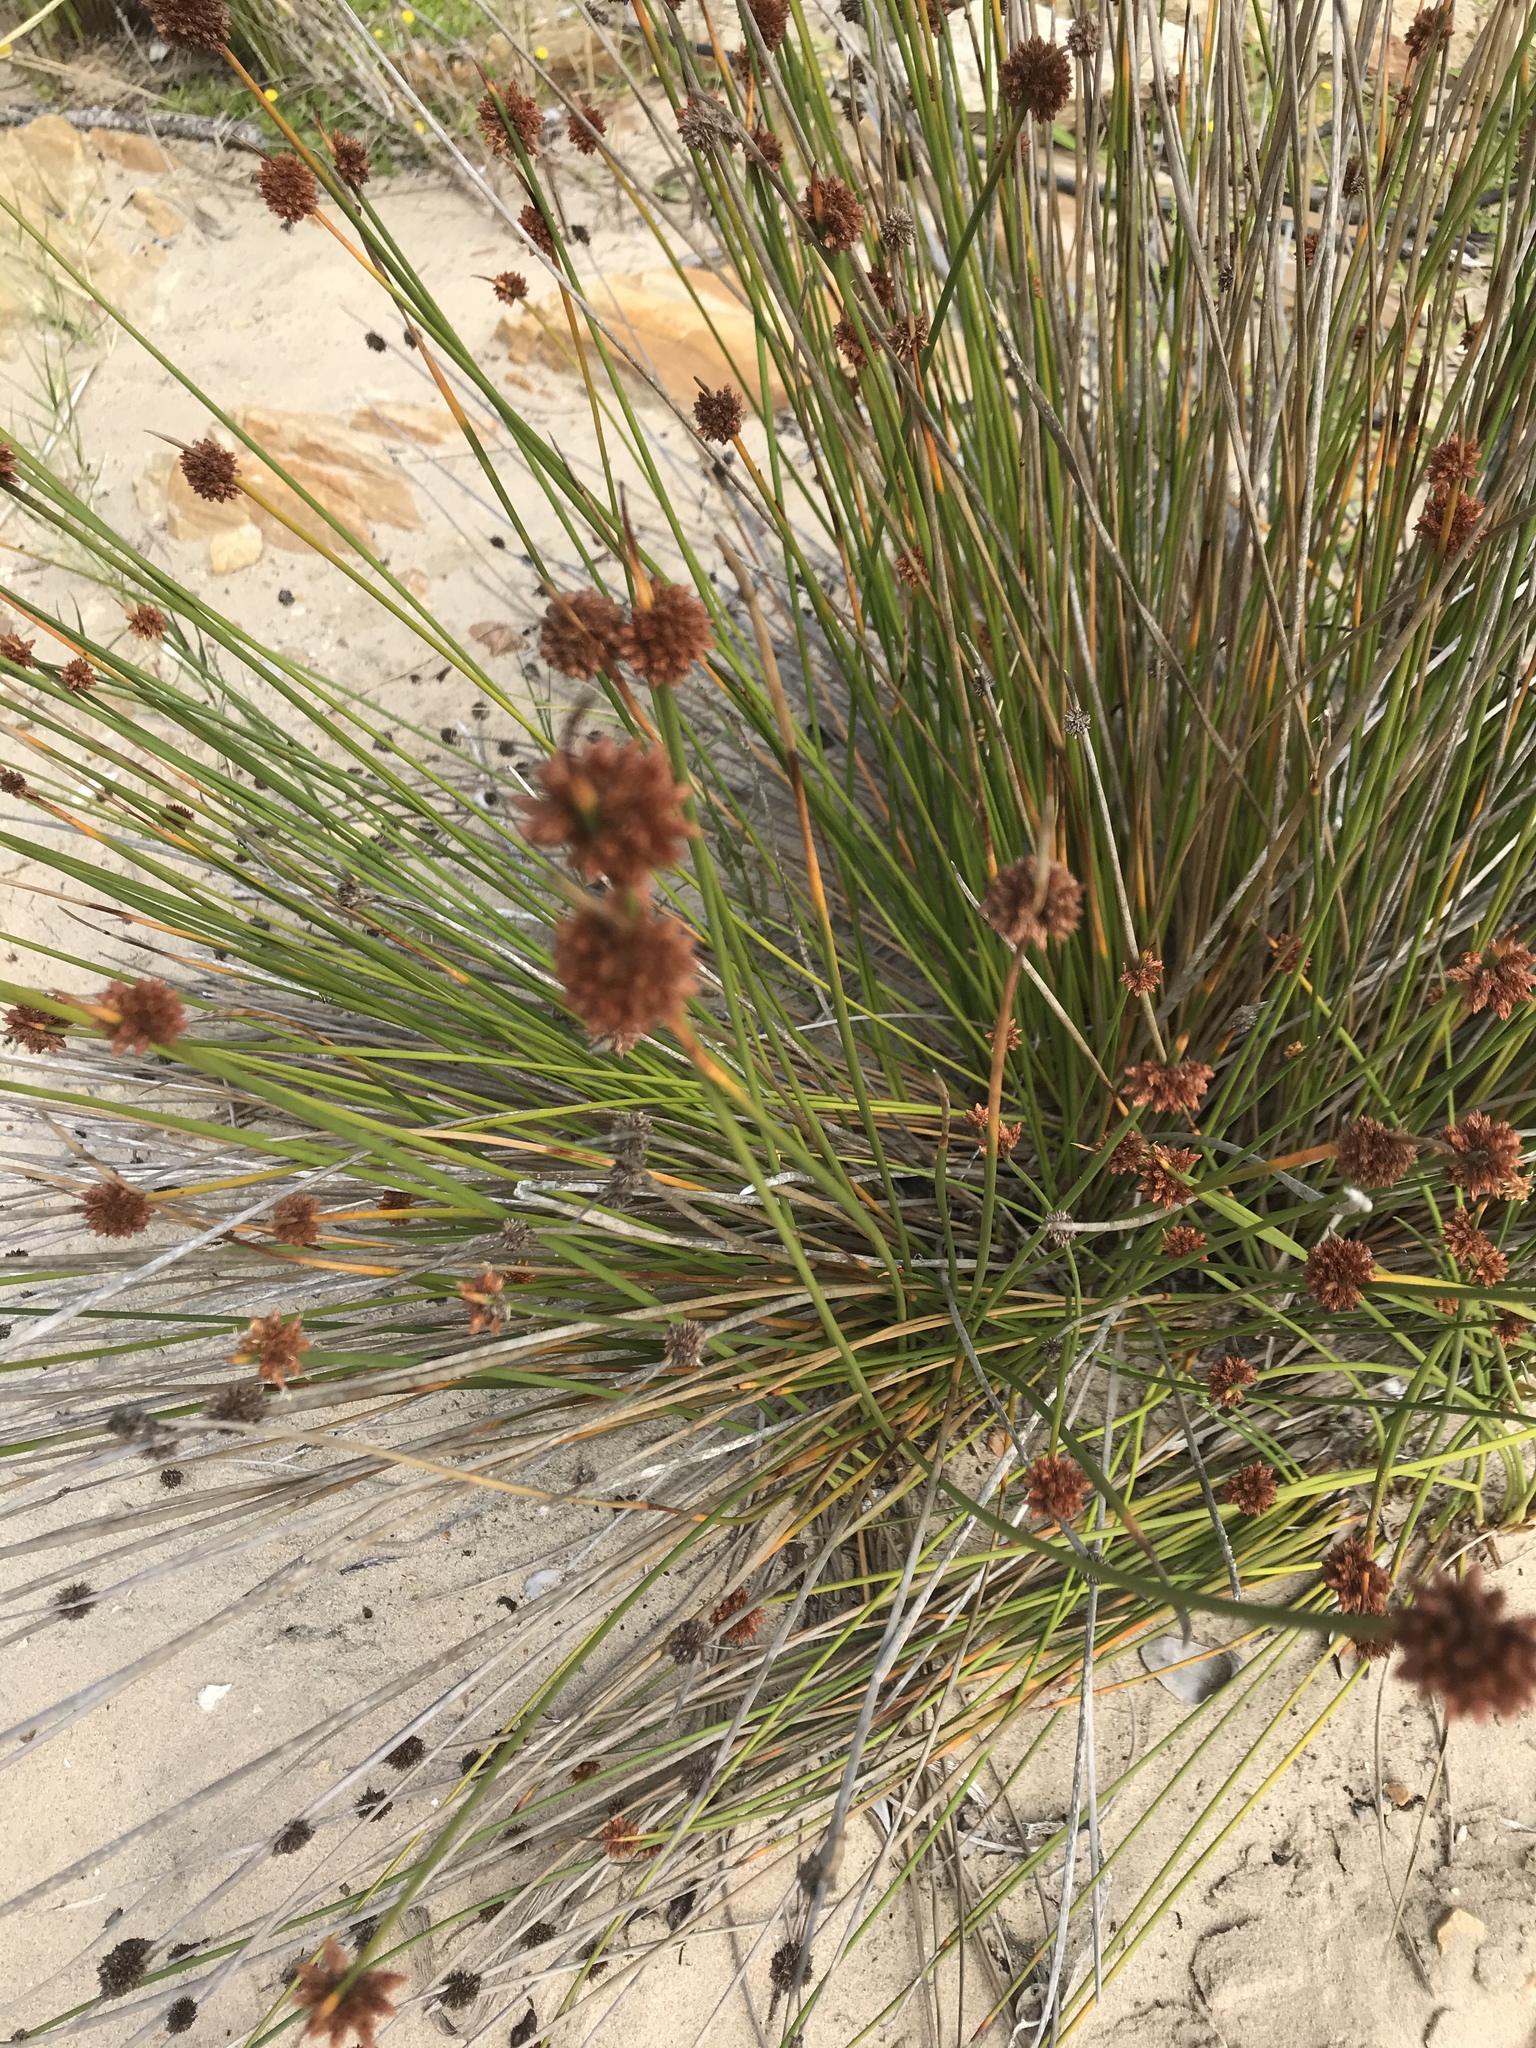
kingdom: Plantae
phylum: Tracheophyta
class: Liliopsida
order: Poales
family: Cyperaceae
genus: Ficinia
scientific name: Ficinia nodosa
